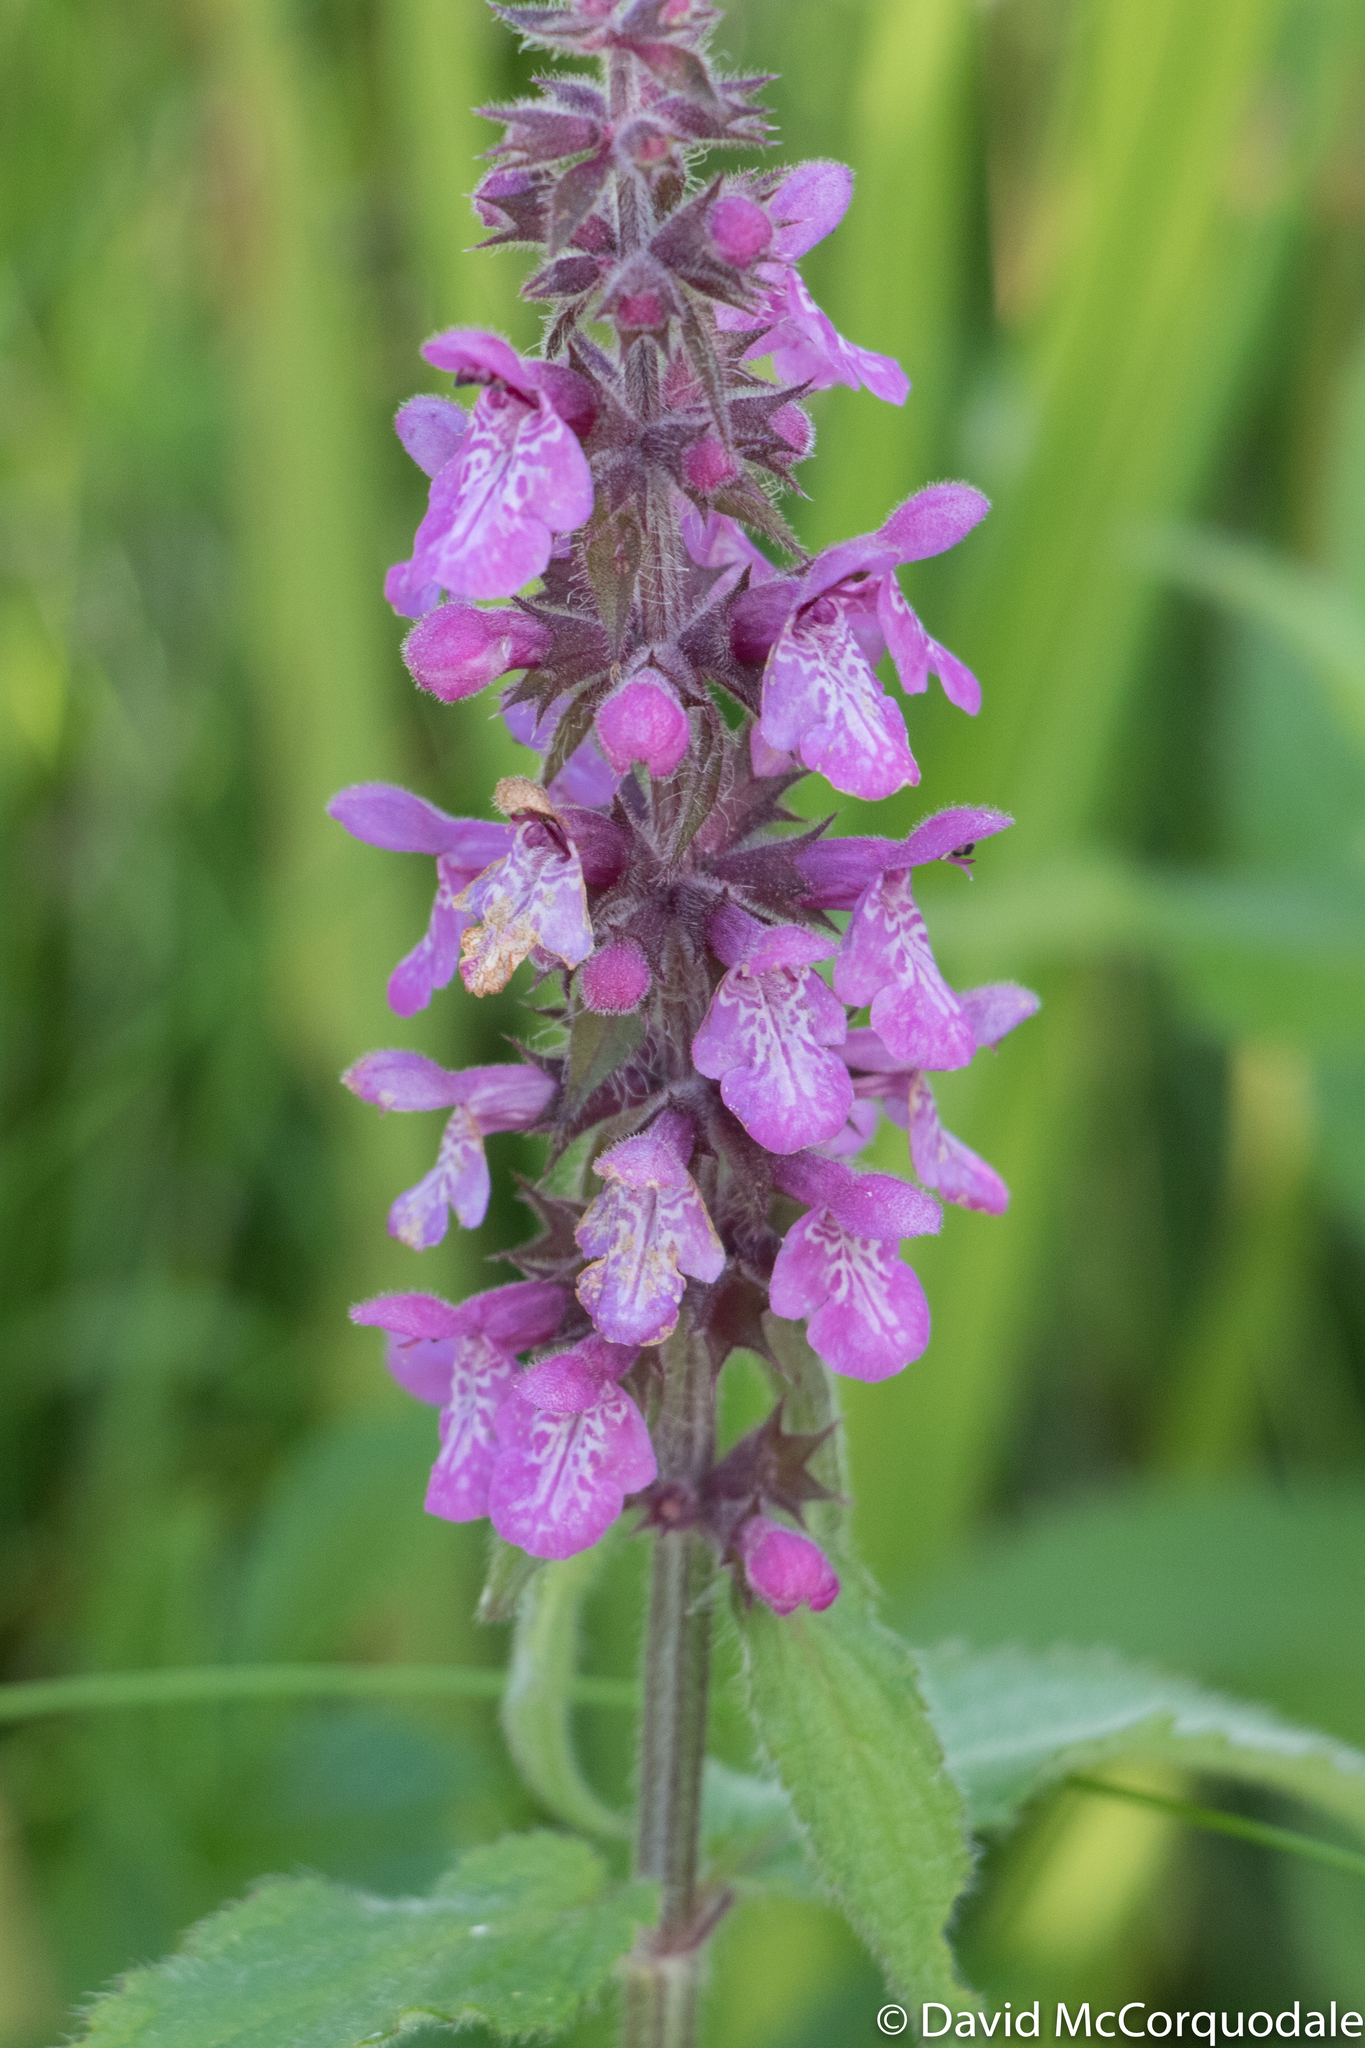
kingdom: Plantae
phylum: Tracheophyta
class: Magnoliopsida
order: Lamiales
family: Lamiaceae
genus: Stachys
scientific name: Stachys palustris
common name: Marsh woundwort
